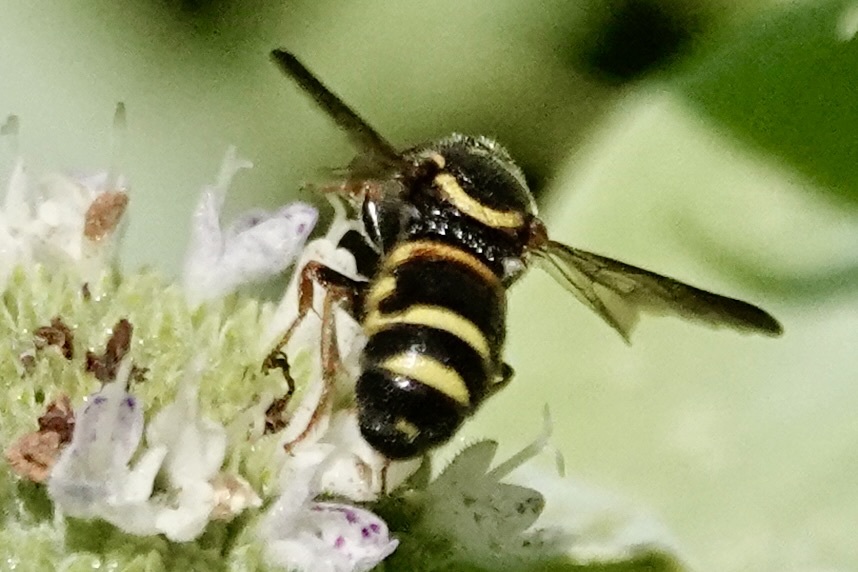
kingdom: Animalia
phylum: Arthropoda
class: Insecta
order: Hymenoptera
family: Megachilidae
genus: Stelis
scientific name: Stelis louisae
